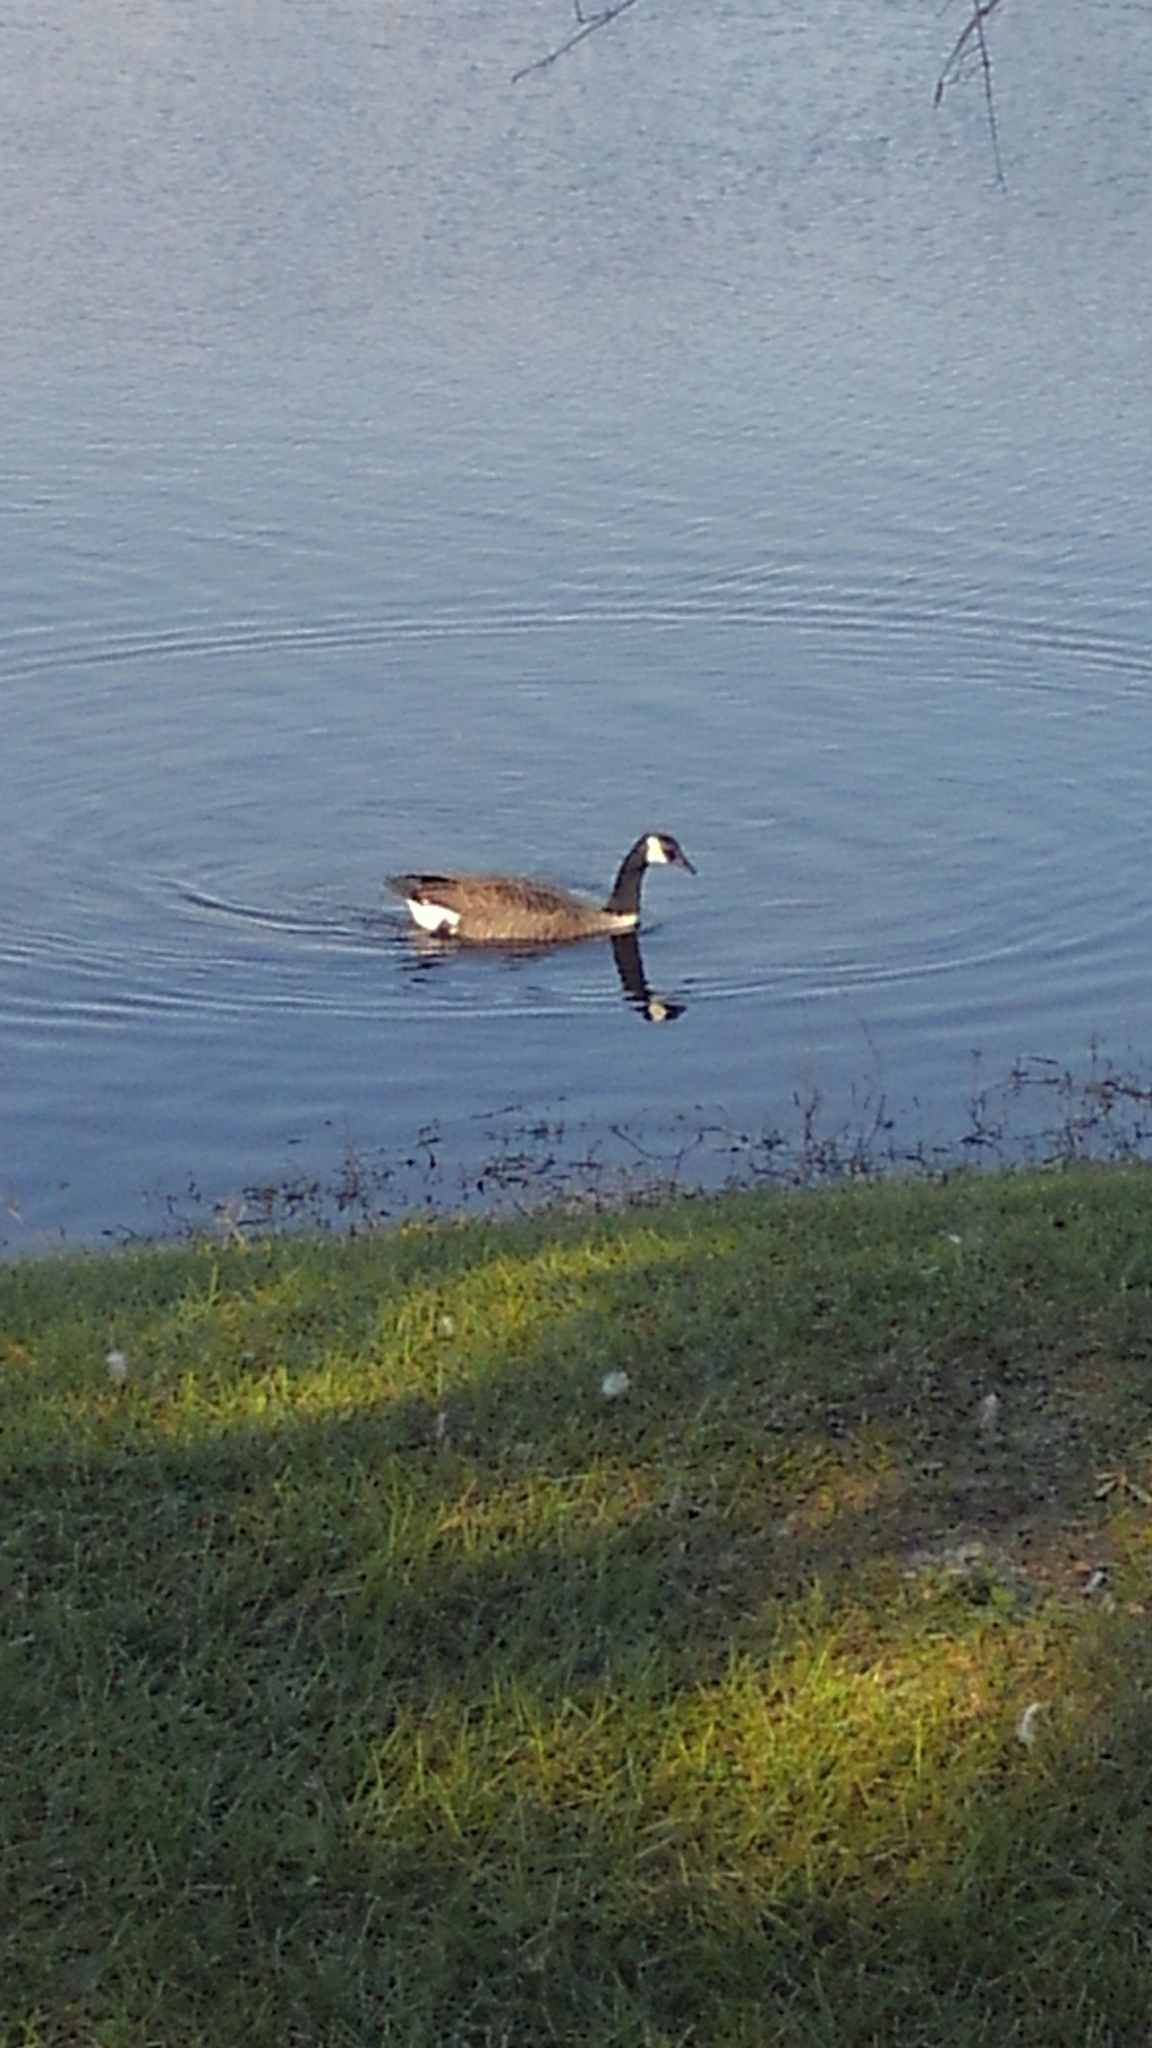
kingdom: Animalia
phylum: Chordata
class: Aves
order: Anseriformes
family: Anatidae
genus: Branta
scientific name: Branta canadensis
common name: Canada goose
